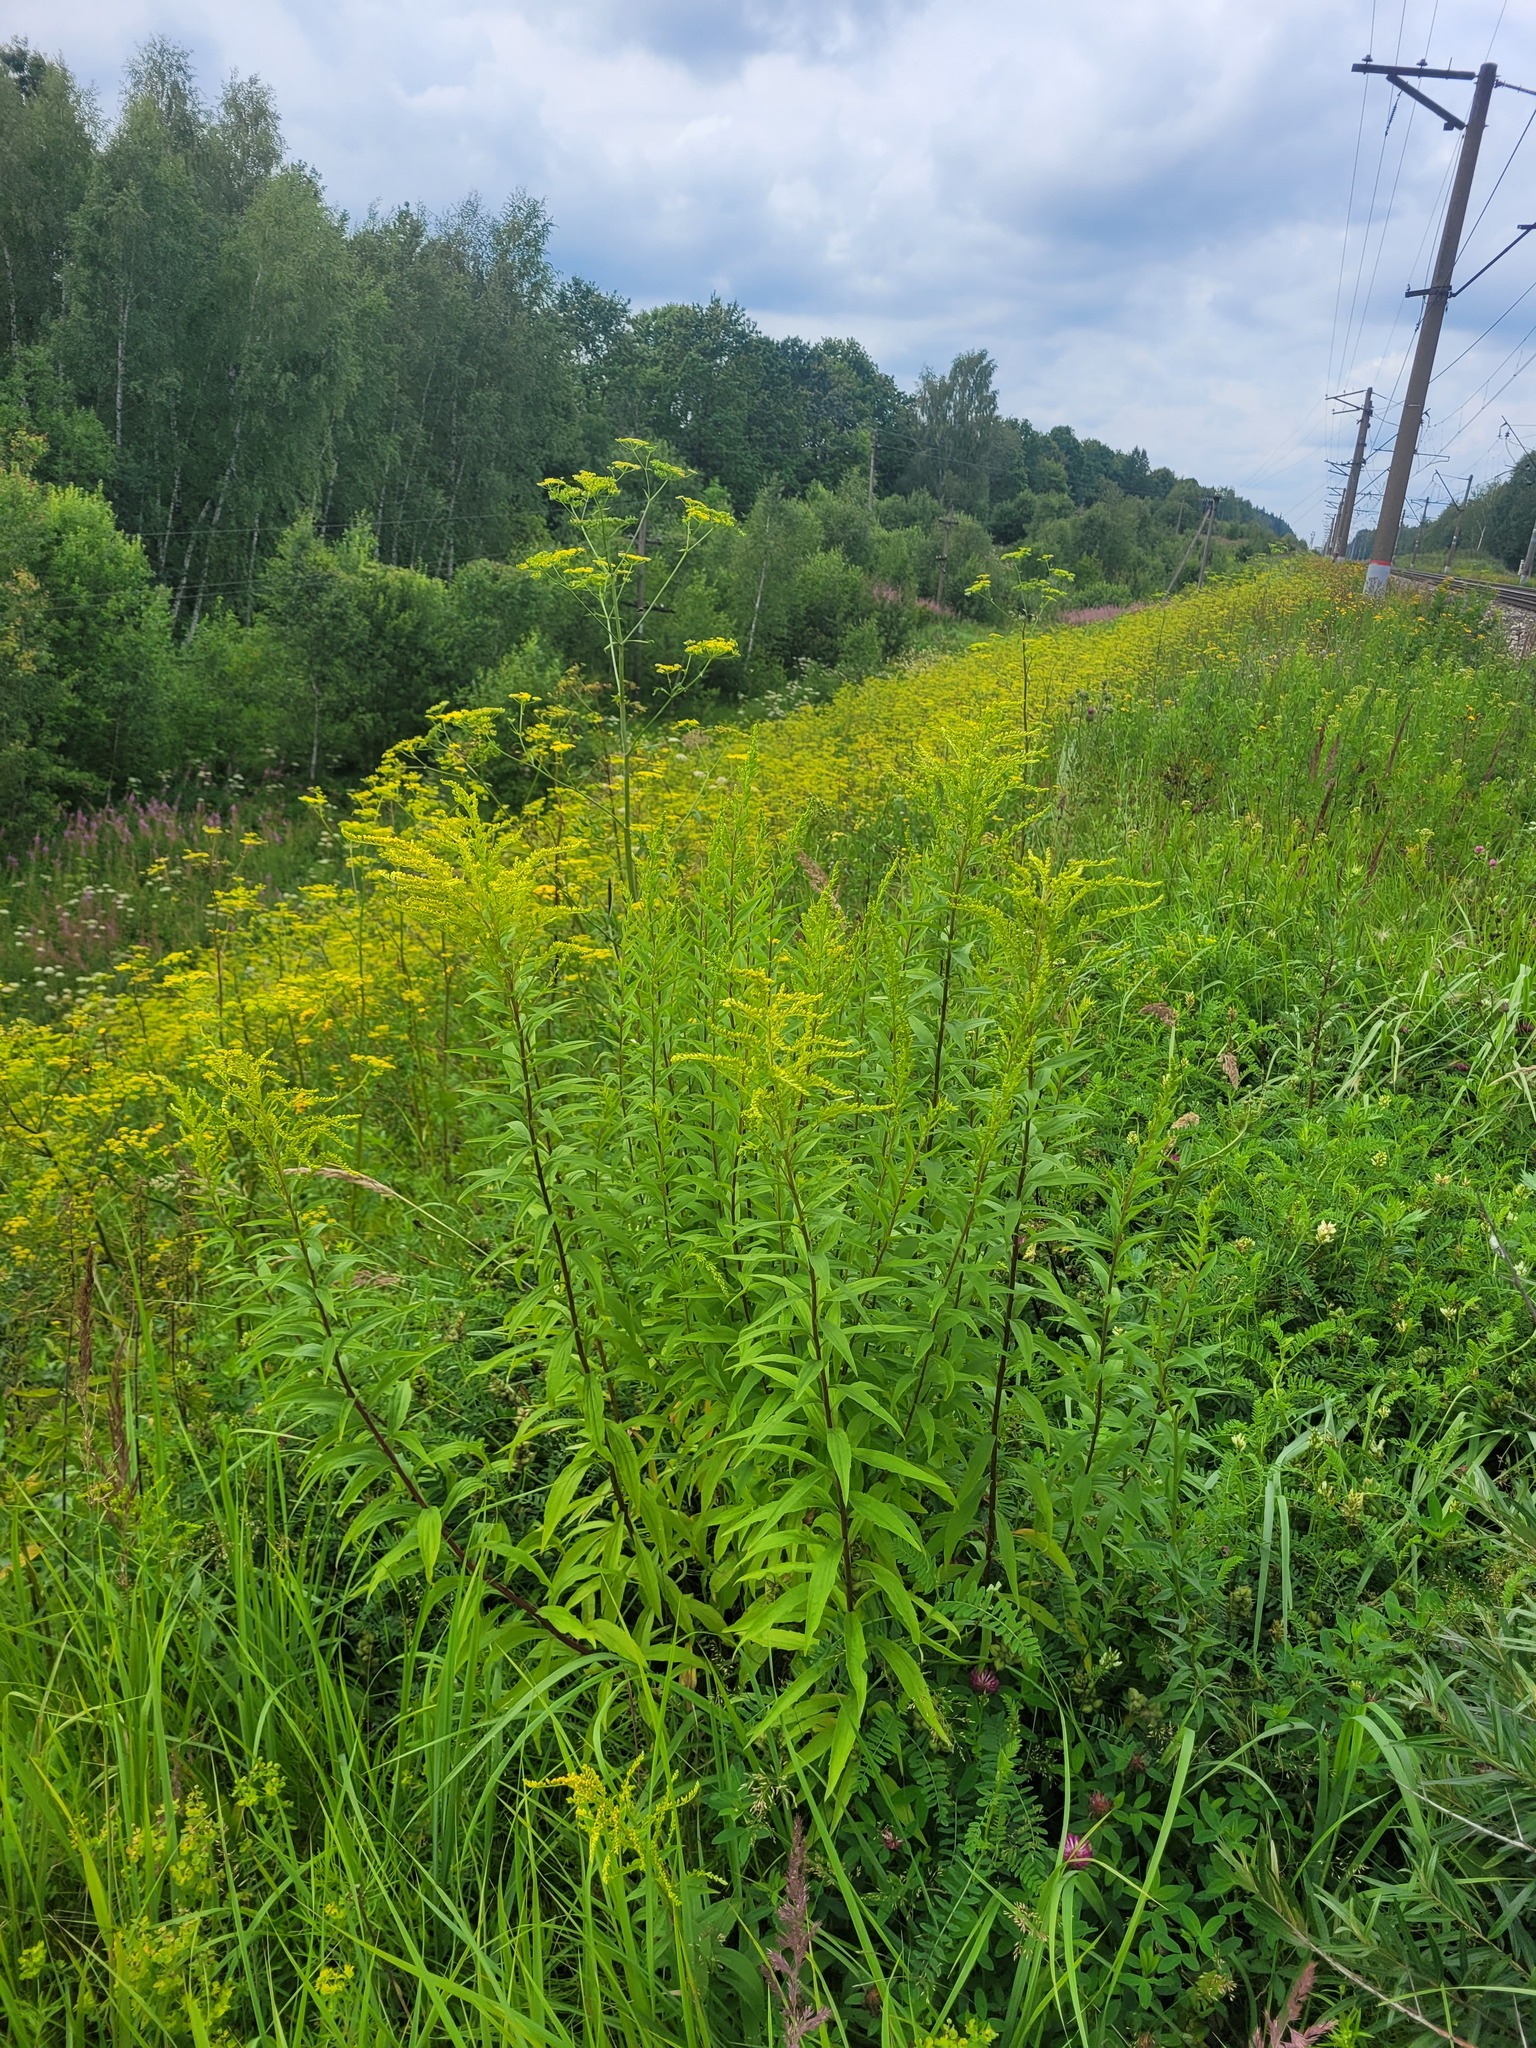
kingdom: Plantae
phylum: Tracheophyta
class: Magnoliopsida
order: Asterales
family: Asteraceae
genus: Solidago
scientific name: Solidago canadensis
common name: Canada goldenrod
